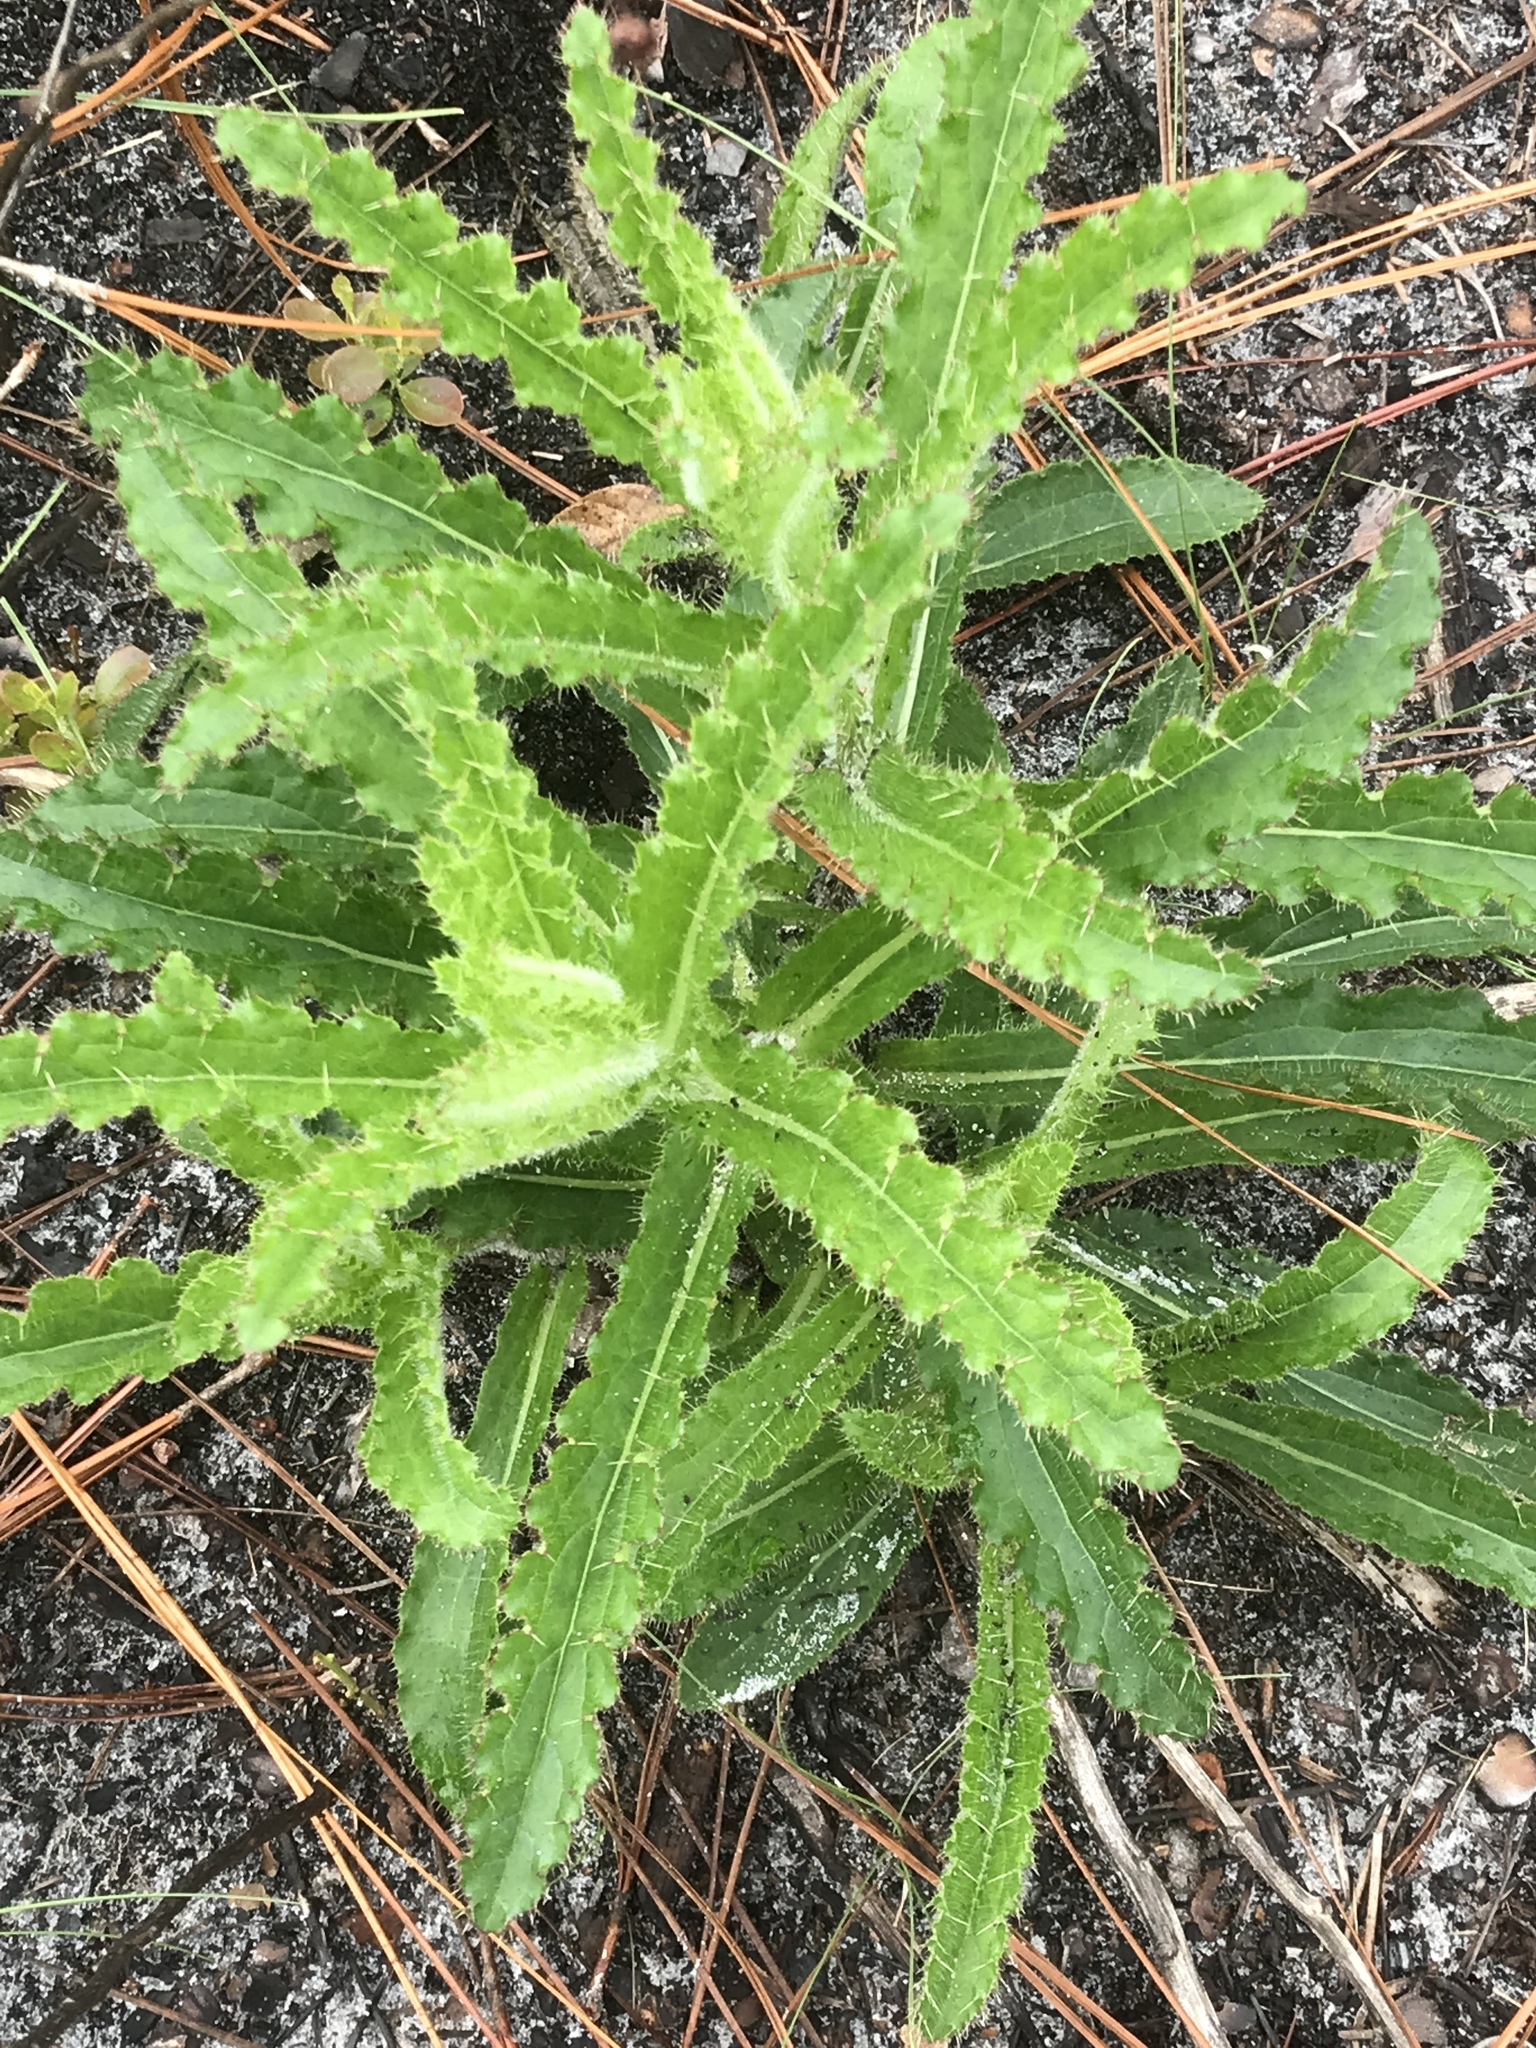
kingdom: Plantae
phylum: Tracheophyta
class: Magnoliopsida
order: Asterales
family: Asteraceae
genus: Cirsium
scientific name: Cirsium repandum
